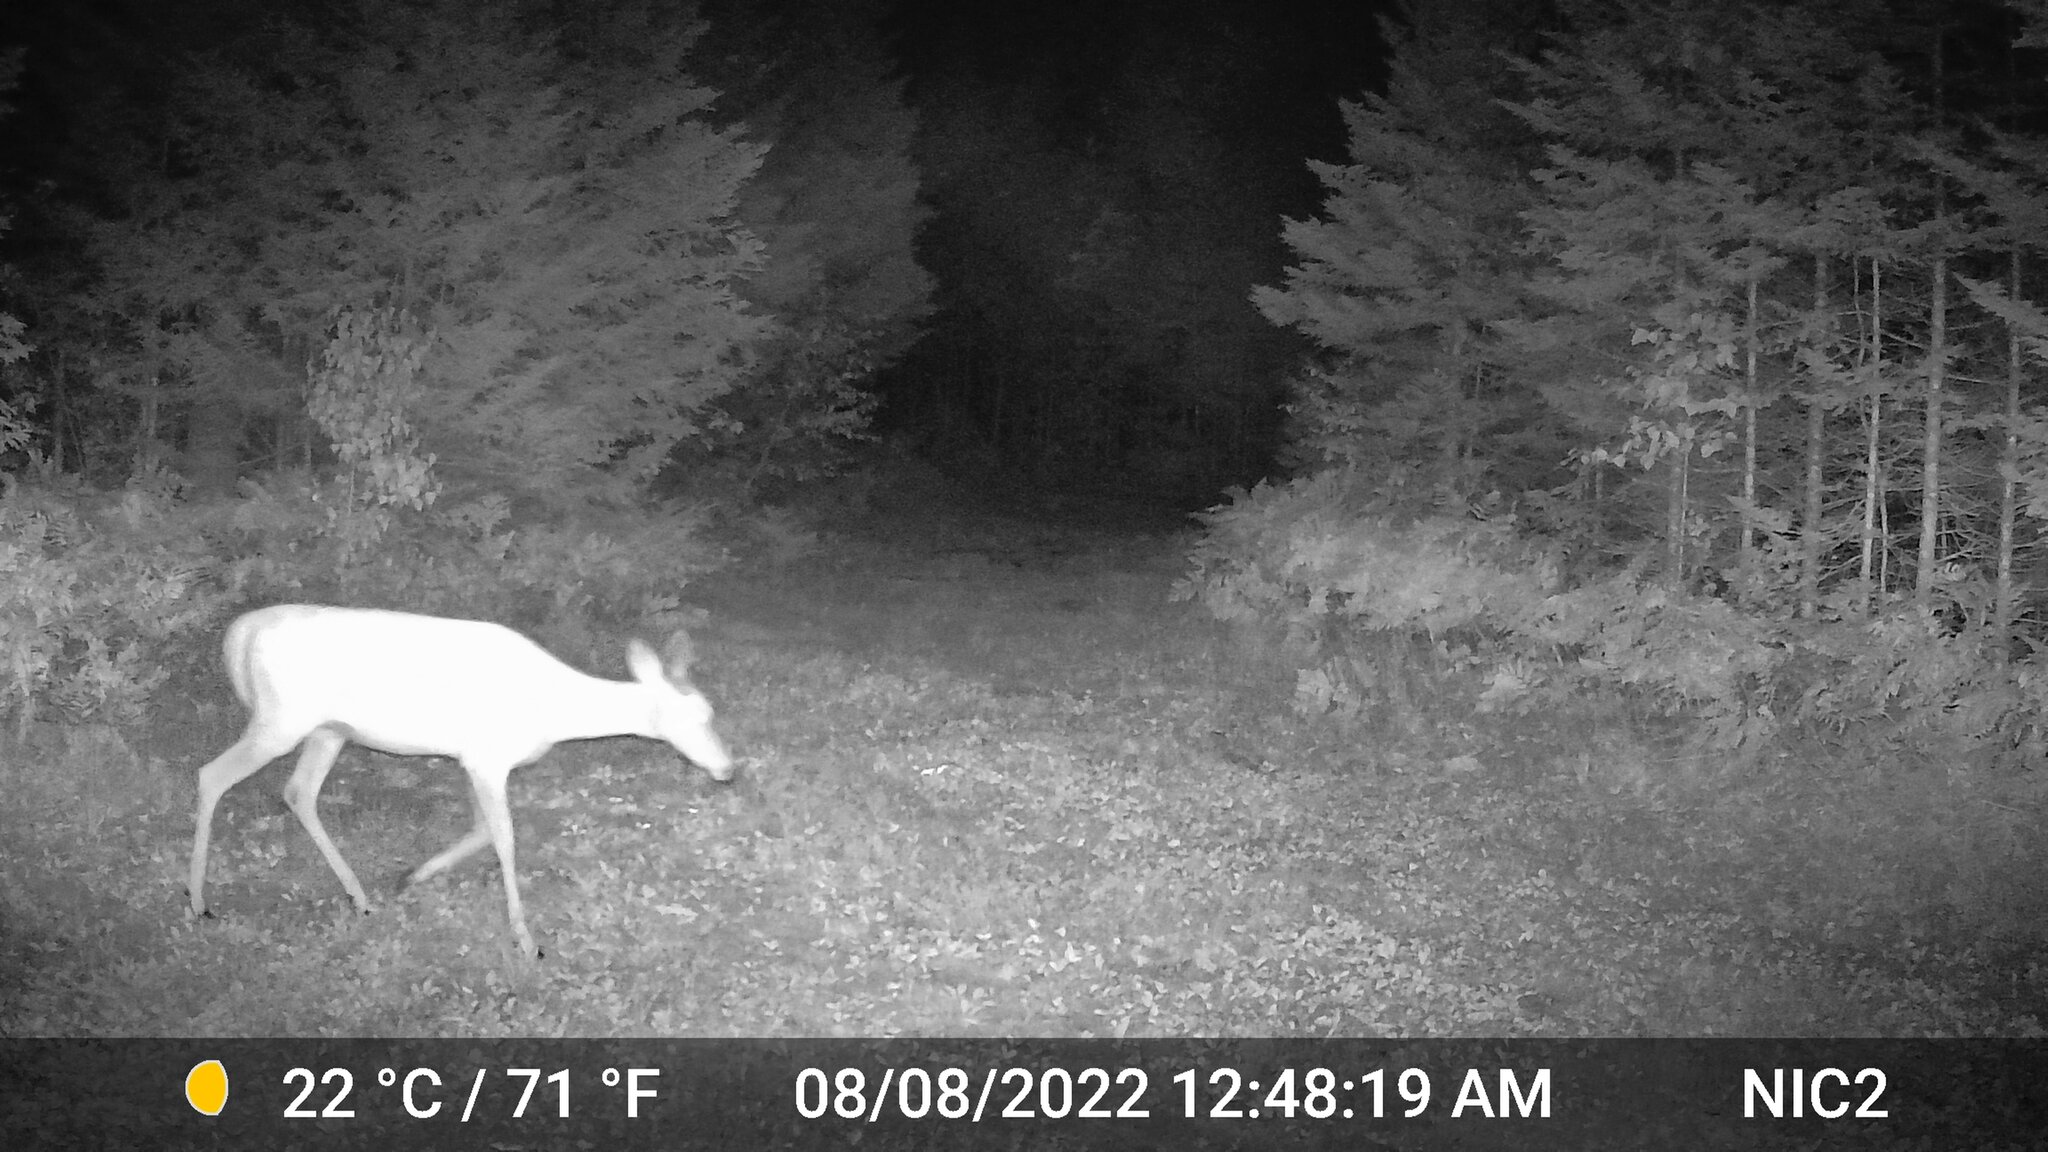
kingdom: Animalia
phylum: Chordata
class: Mammalia
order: Artiodactyla
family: Cervidae
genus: Odocoileus
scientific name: Odocoileus virginianus
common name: White-tailed deer
